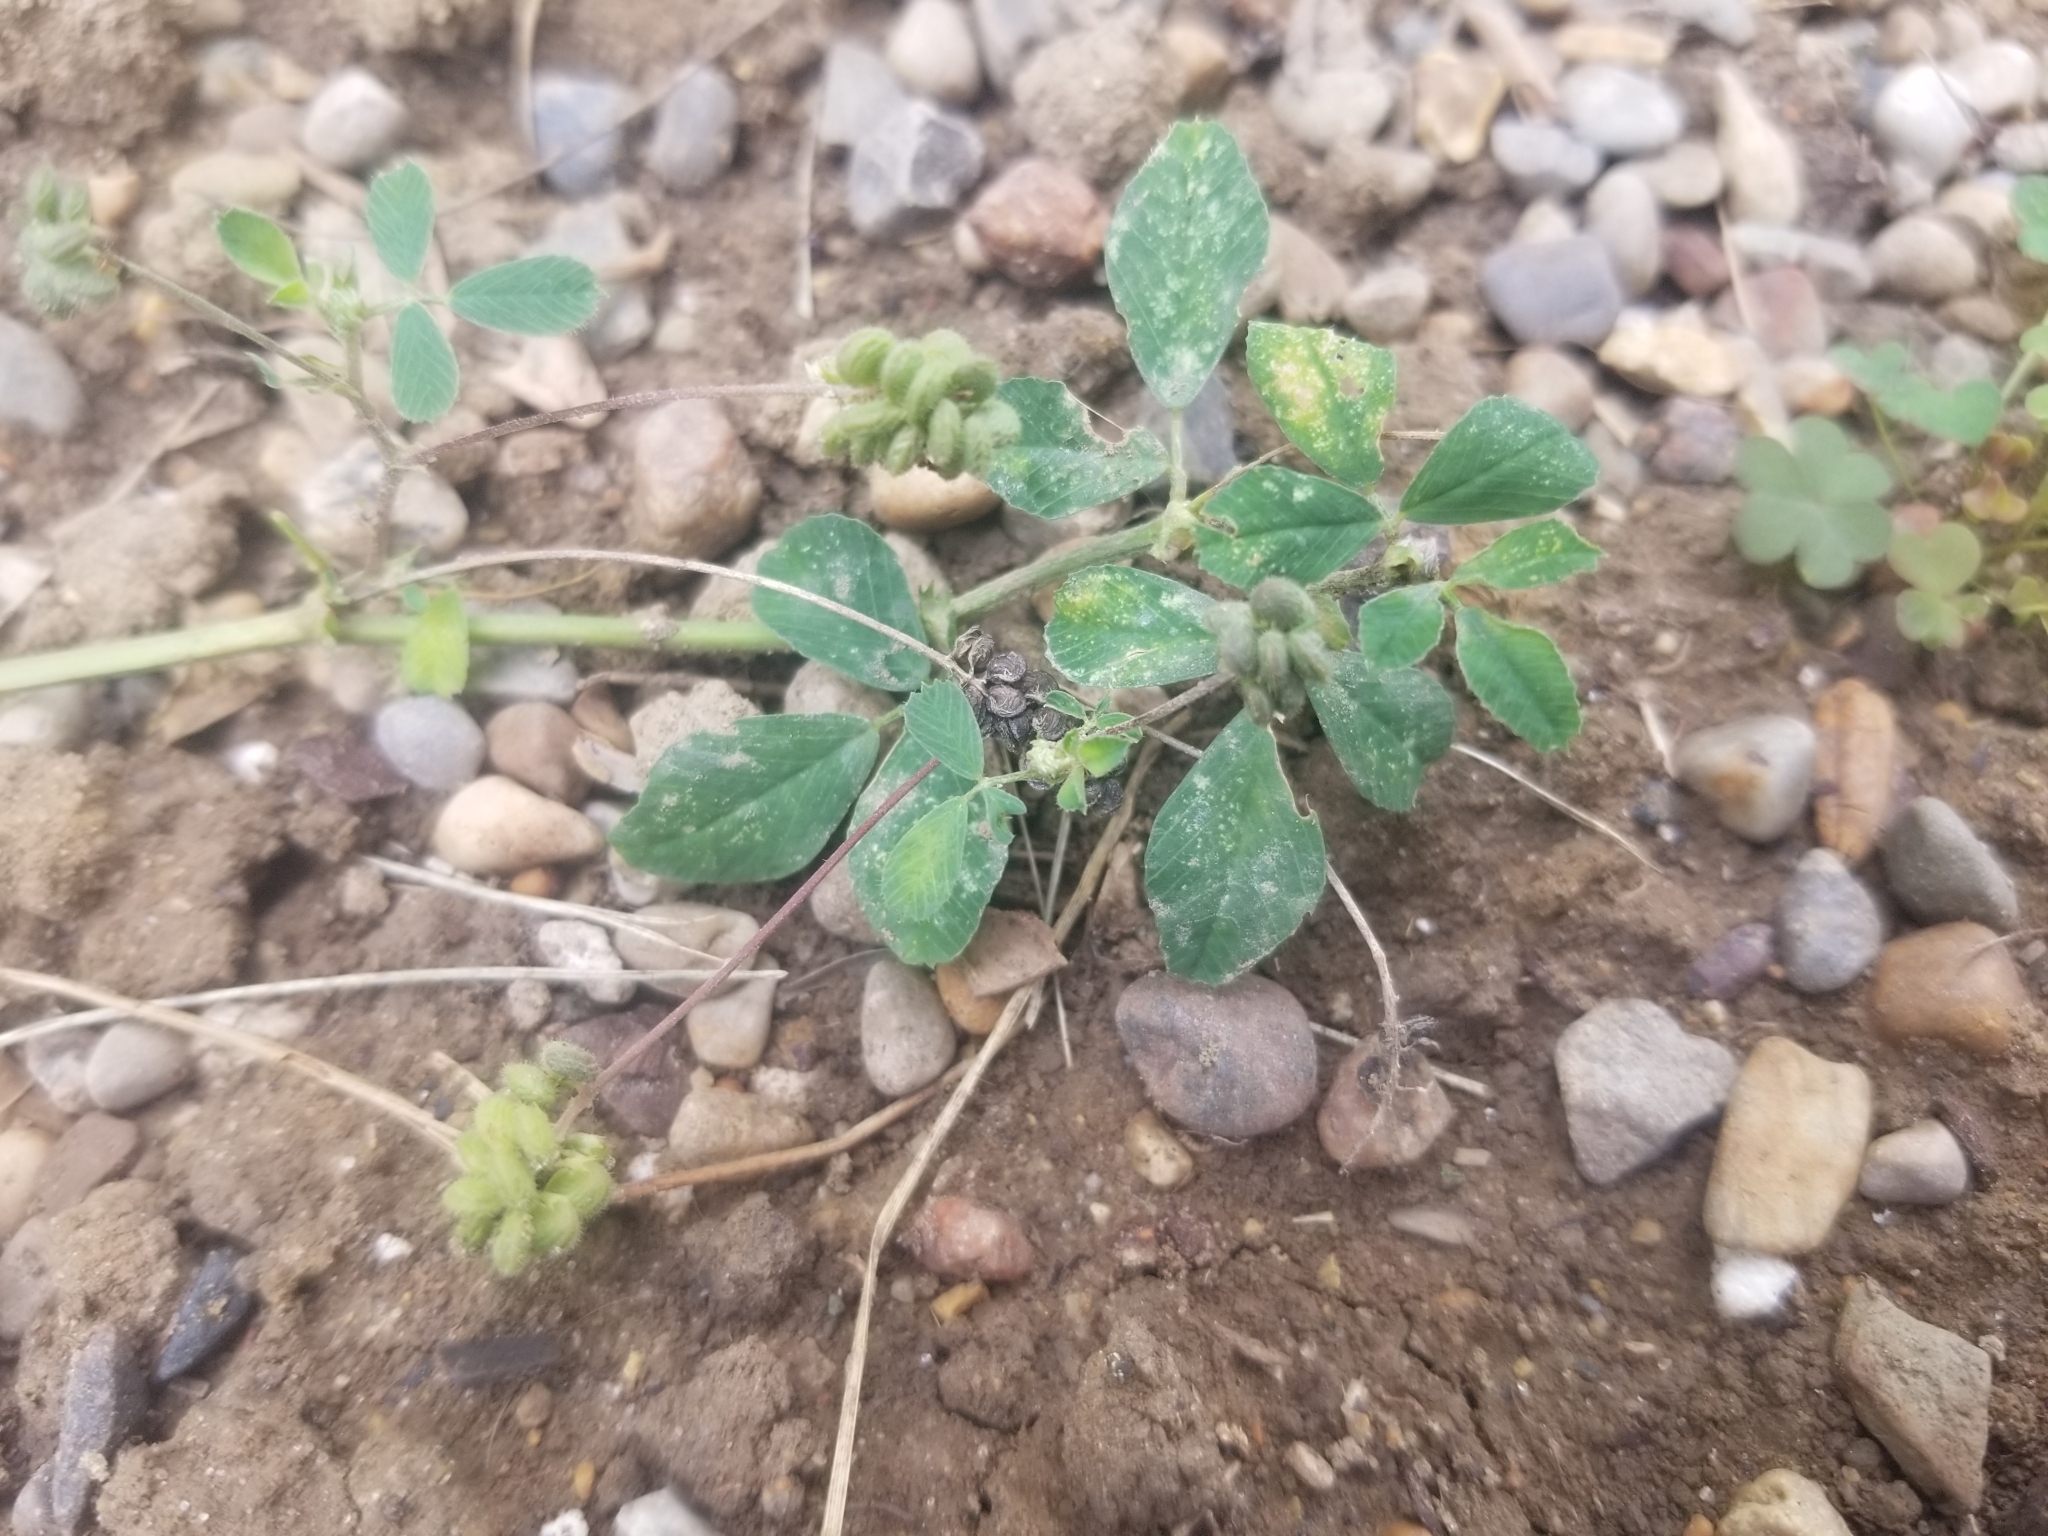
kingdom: Plantae
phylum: Tracheophyta
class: Magnoliopsida
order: Fabales
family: Fabaceae
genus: Medicago
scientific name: Medicago lupulina
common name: Black medick
